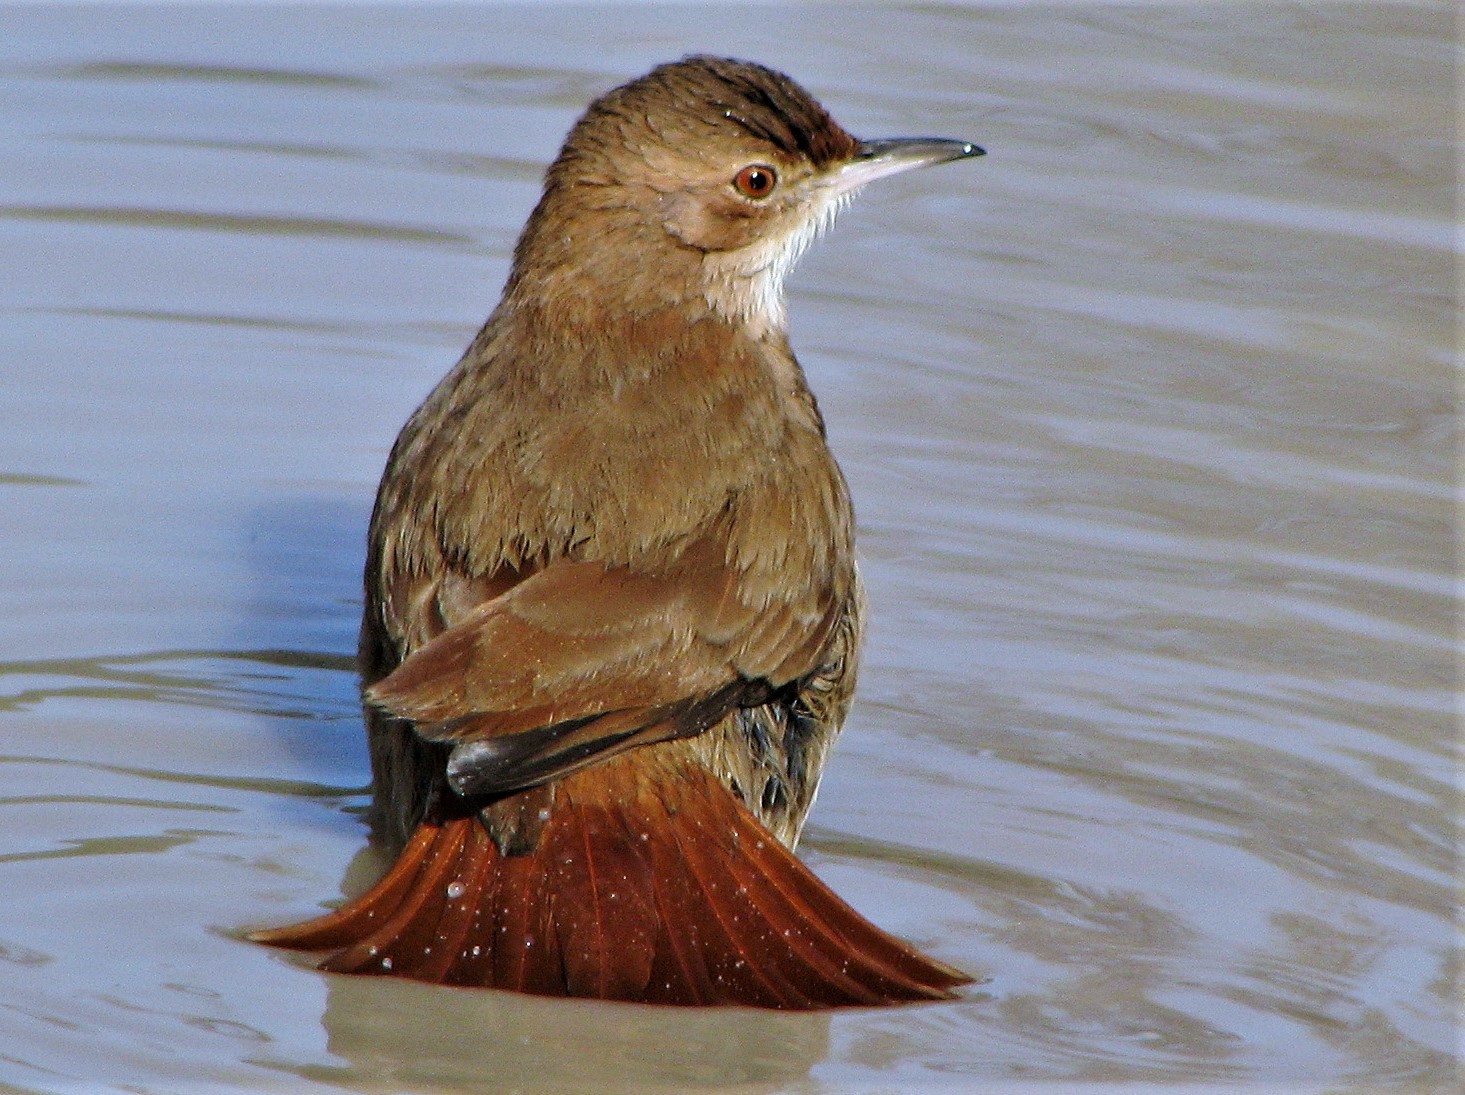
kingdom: Animalia
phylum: Chordata
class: Aves
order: Passeriformes
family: Furnariidae
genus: Furnarius
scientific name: Furnarius rufus
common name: Rufous hornero
